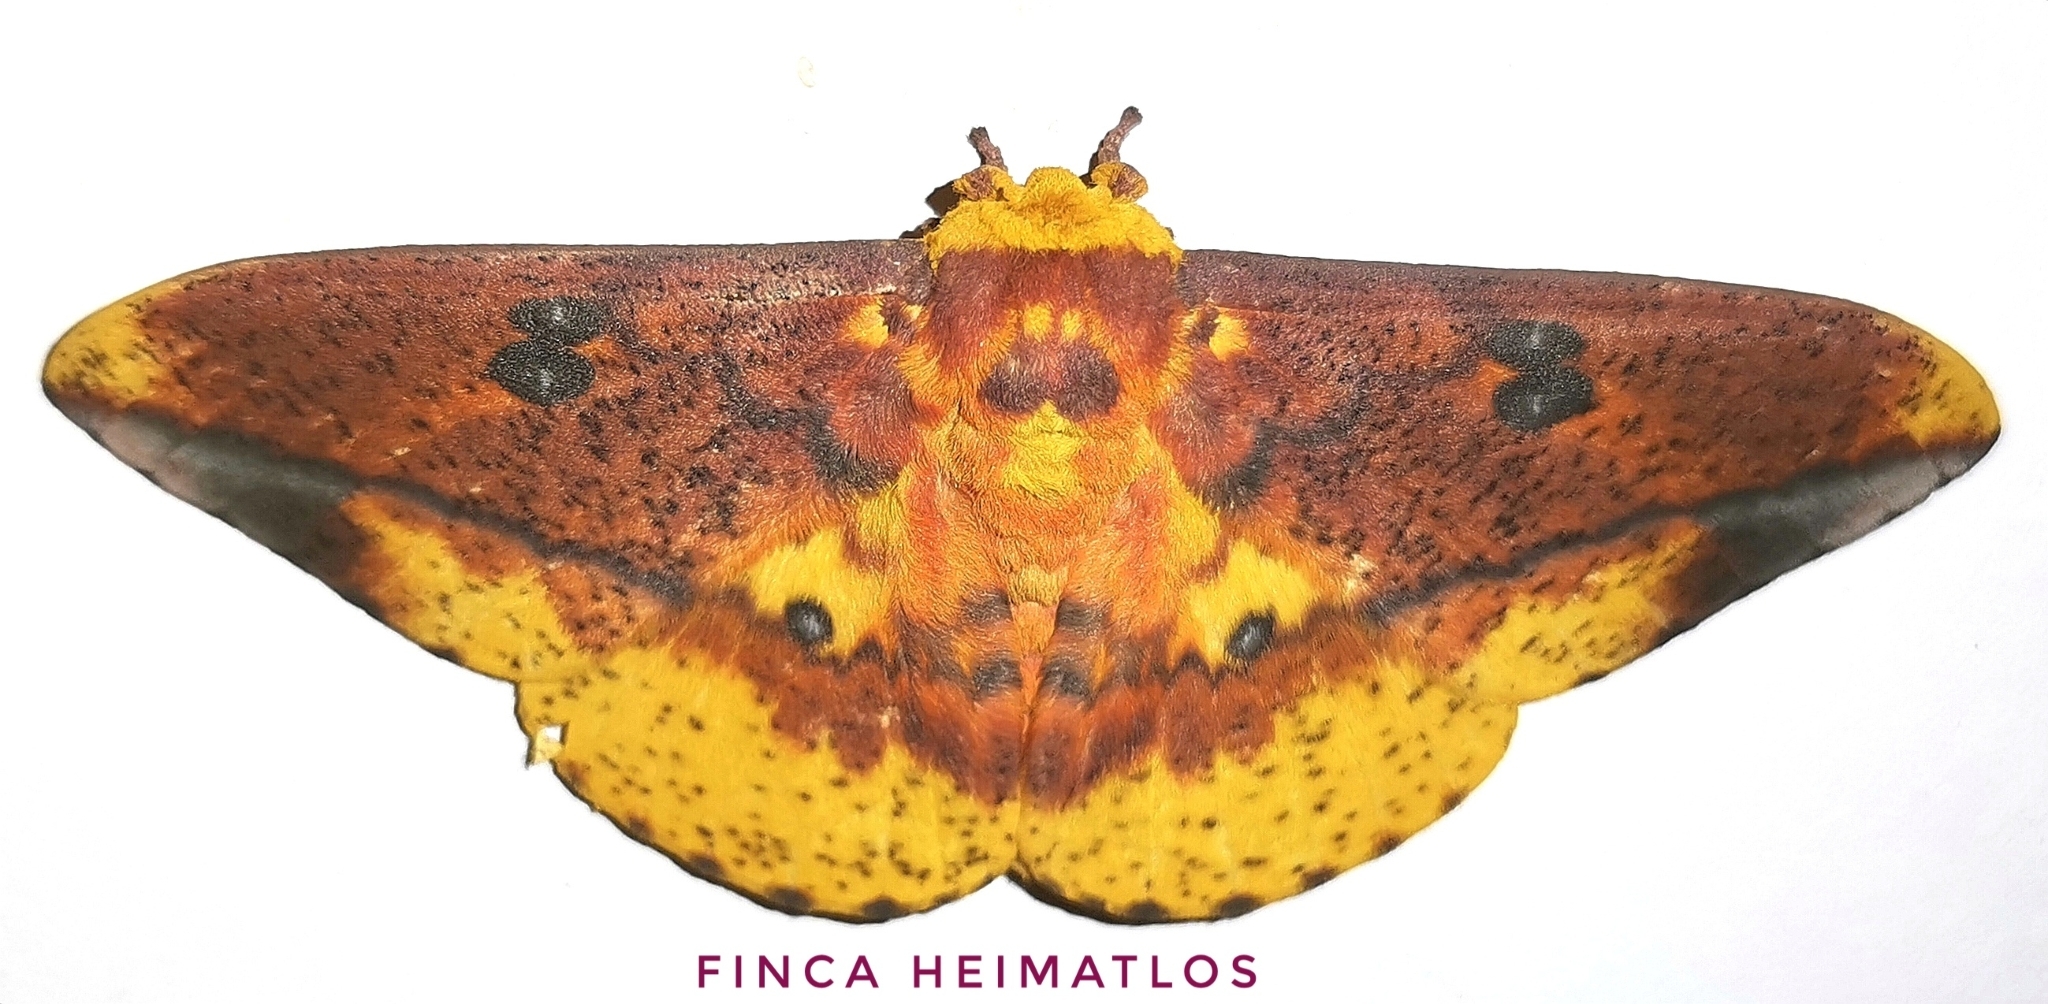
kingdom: Animalia
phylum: Arthropoda
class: Insecta
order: Lepidoptera
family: Saturniidae
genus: Eacles
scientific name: Eacles ormondei
